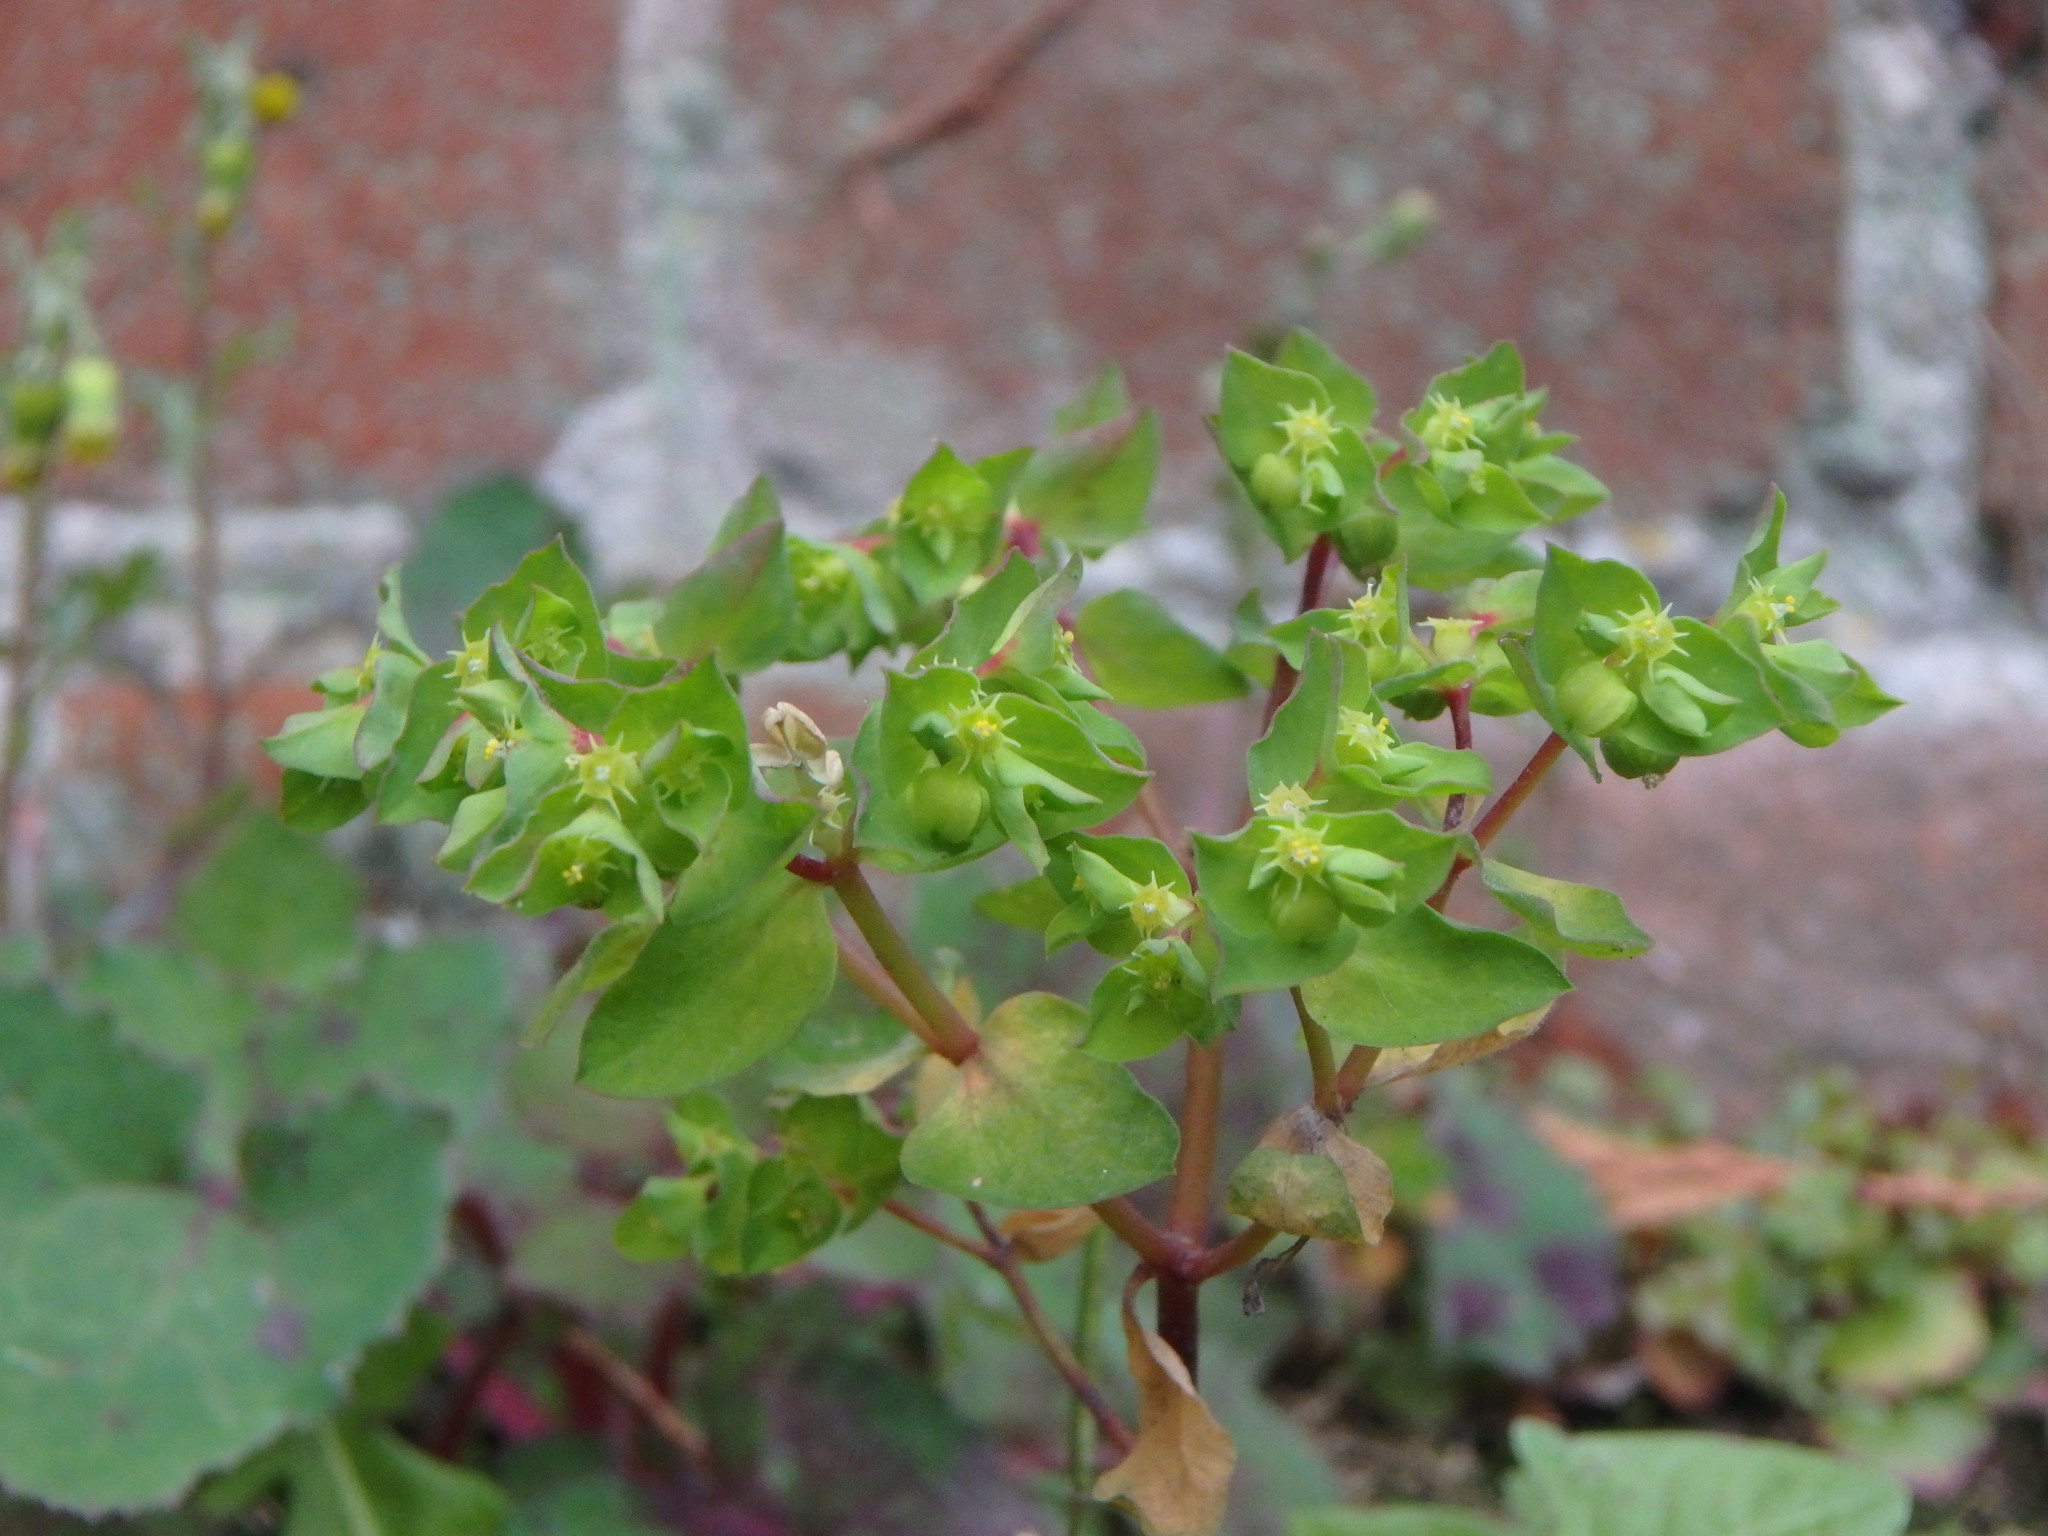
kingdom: Plantae
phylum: Tracheophyta
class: Magnoliopsida
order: Malpighiales
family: Euphorbiaceae
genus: Euphorbia
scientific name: Euphorbia peplus
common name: Petty spurge
